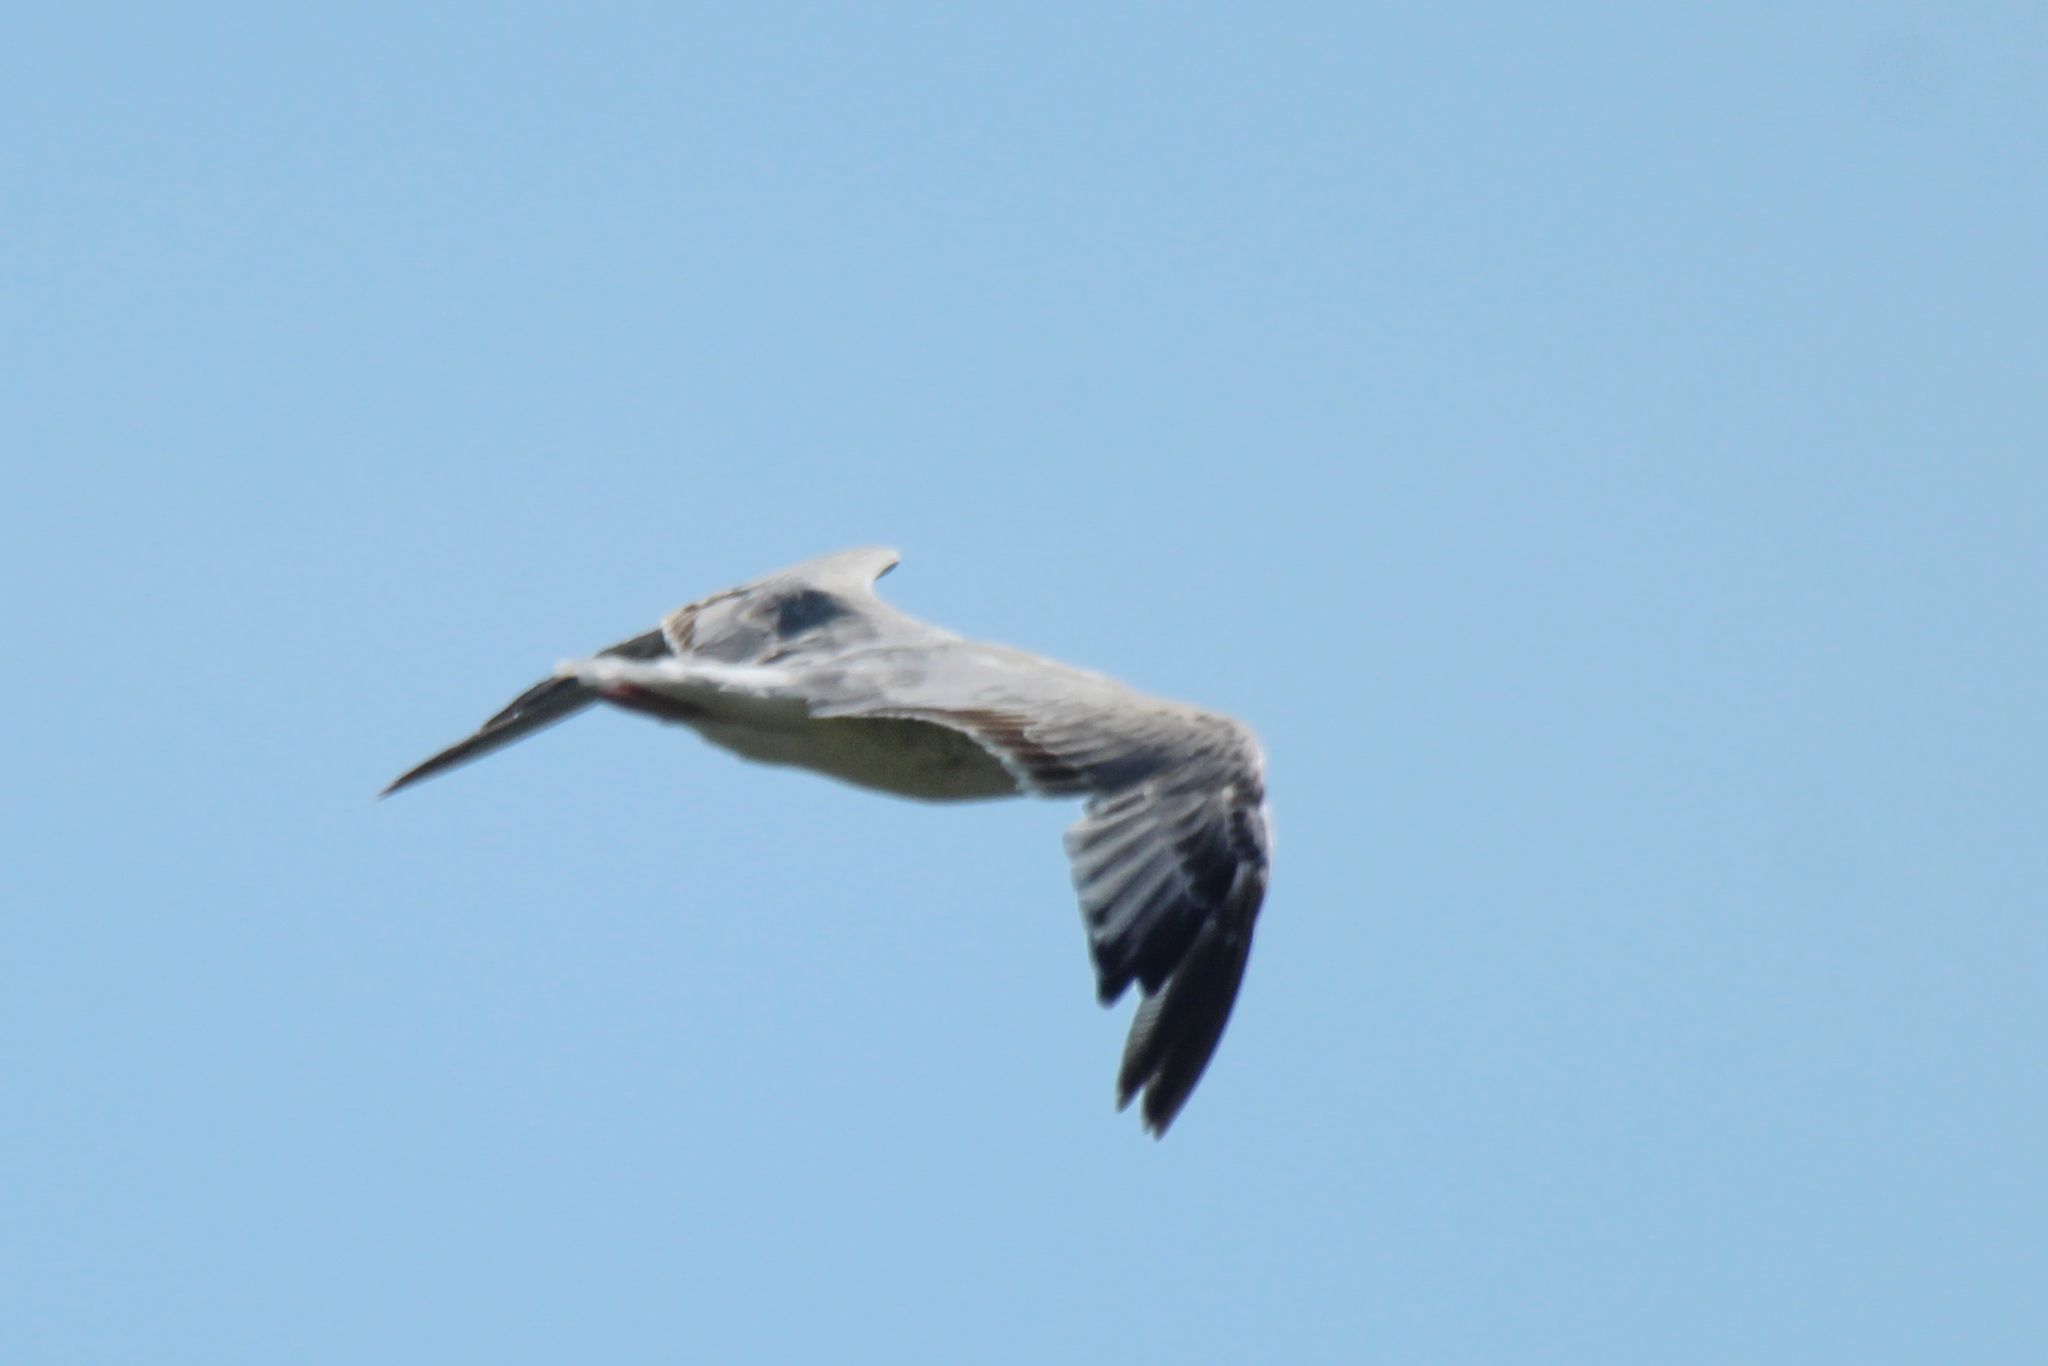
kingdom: Animalia
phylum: Chordata
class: Aves
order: Charadriiformes
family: Laridae
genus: Larus
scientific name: Larus vegae
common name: Vega gull
